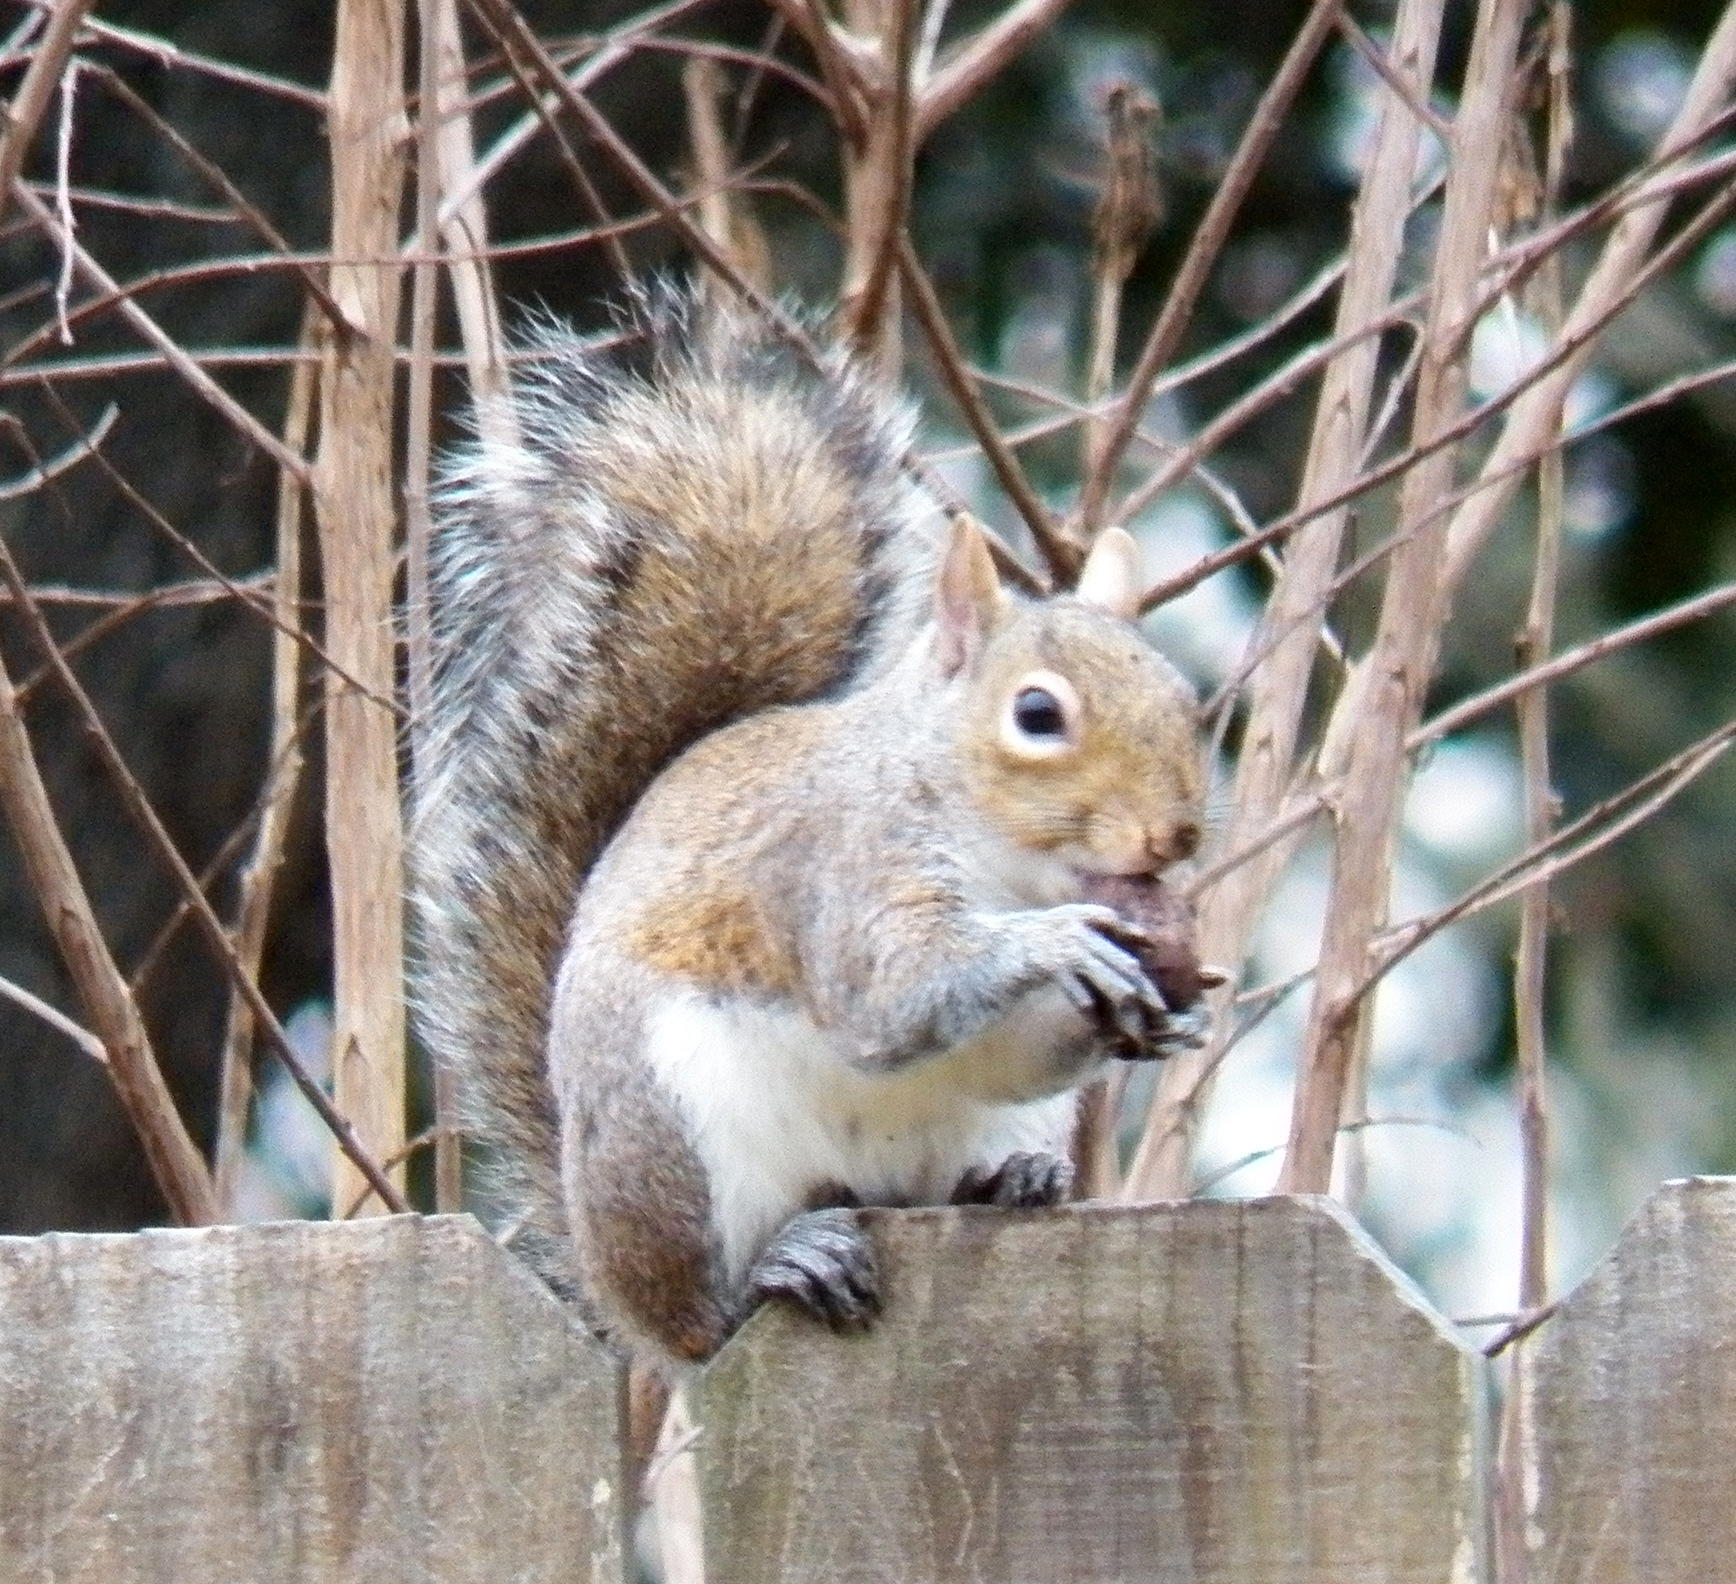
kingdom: Animalia
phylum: Chordata
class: Mammalia
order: Rodentia
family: Sciuridae
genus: Sciurus
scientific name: Sciurus carolinensis
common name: Eastern gray squirrel
